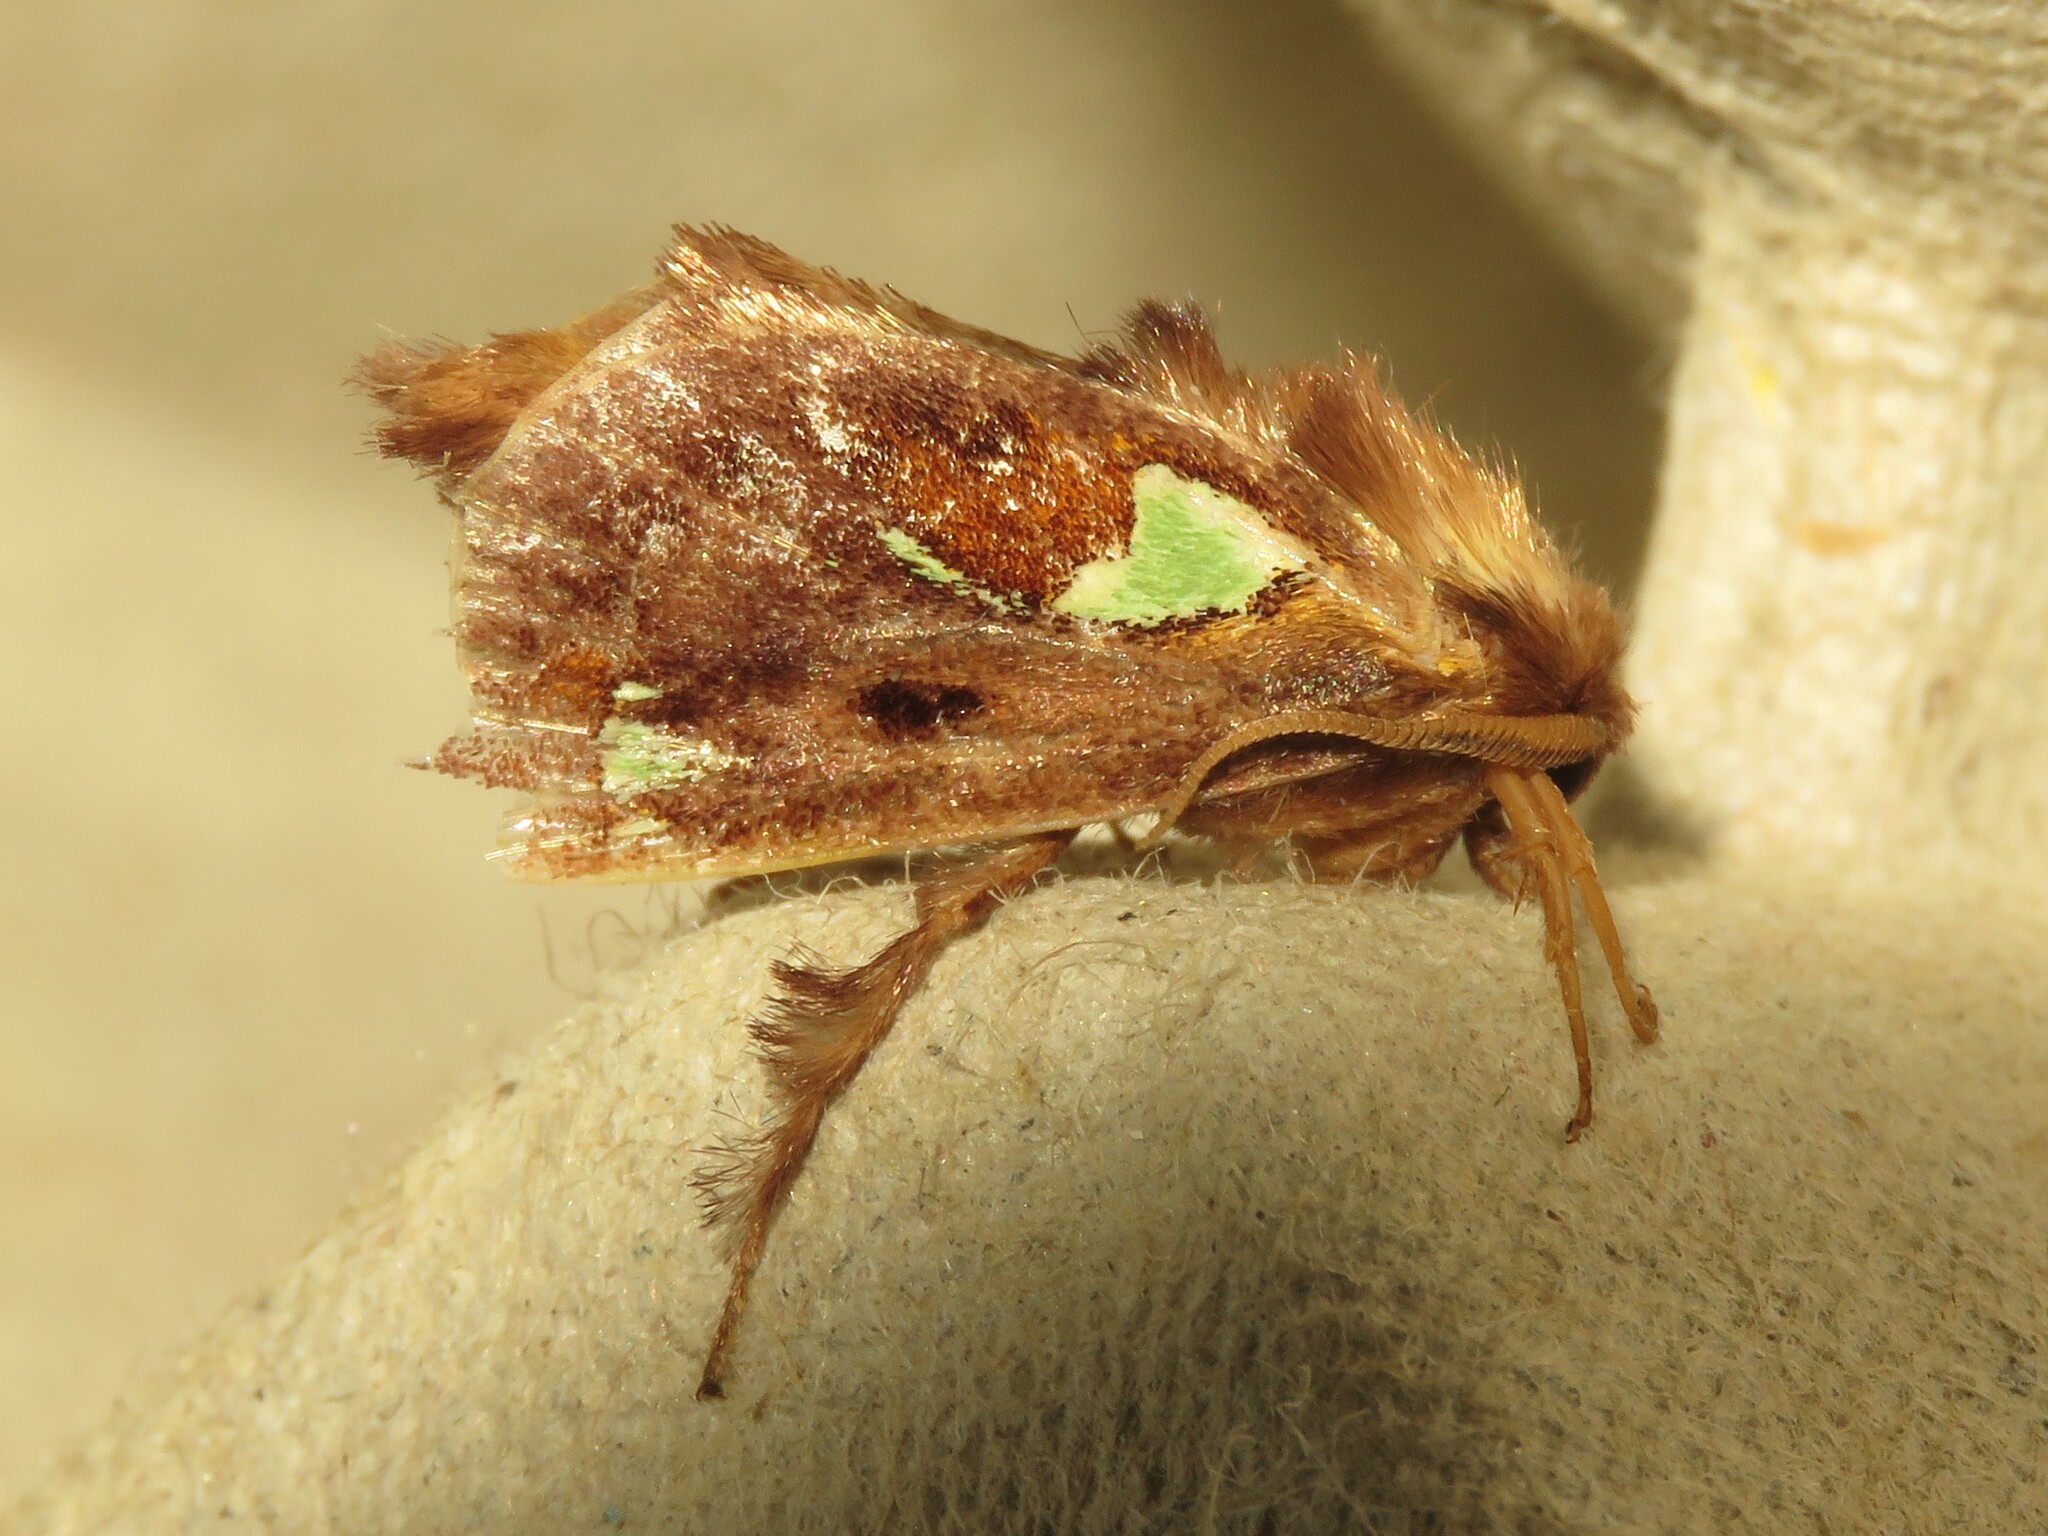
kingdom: Animalia
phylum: Arthropoda
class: Insecta
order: Lepidoptera
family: Limacodidae
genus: Euclea
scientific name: Euclea delphinii
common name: Spiny oak-slug moth
